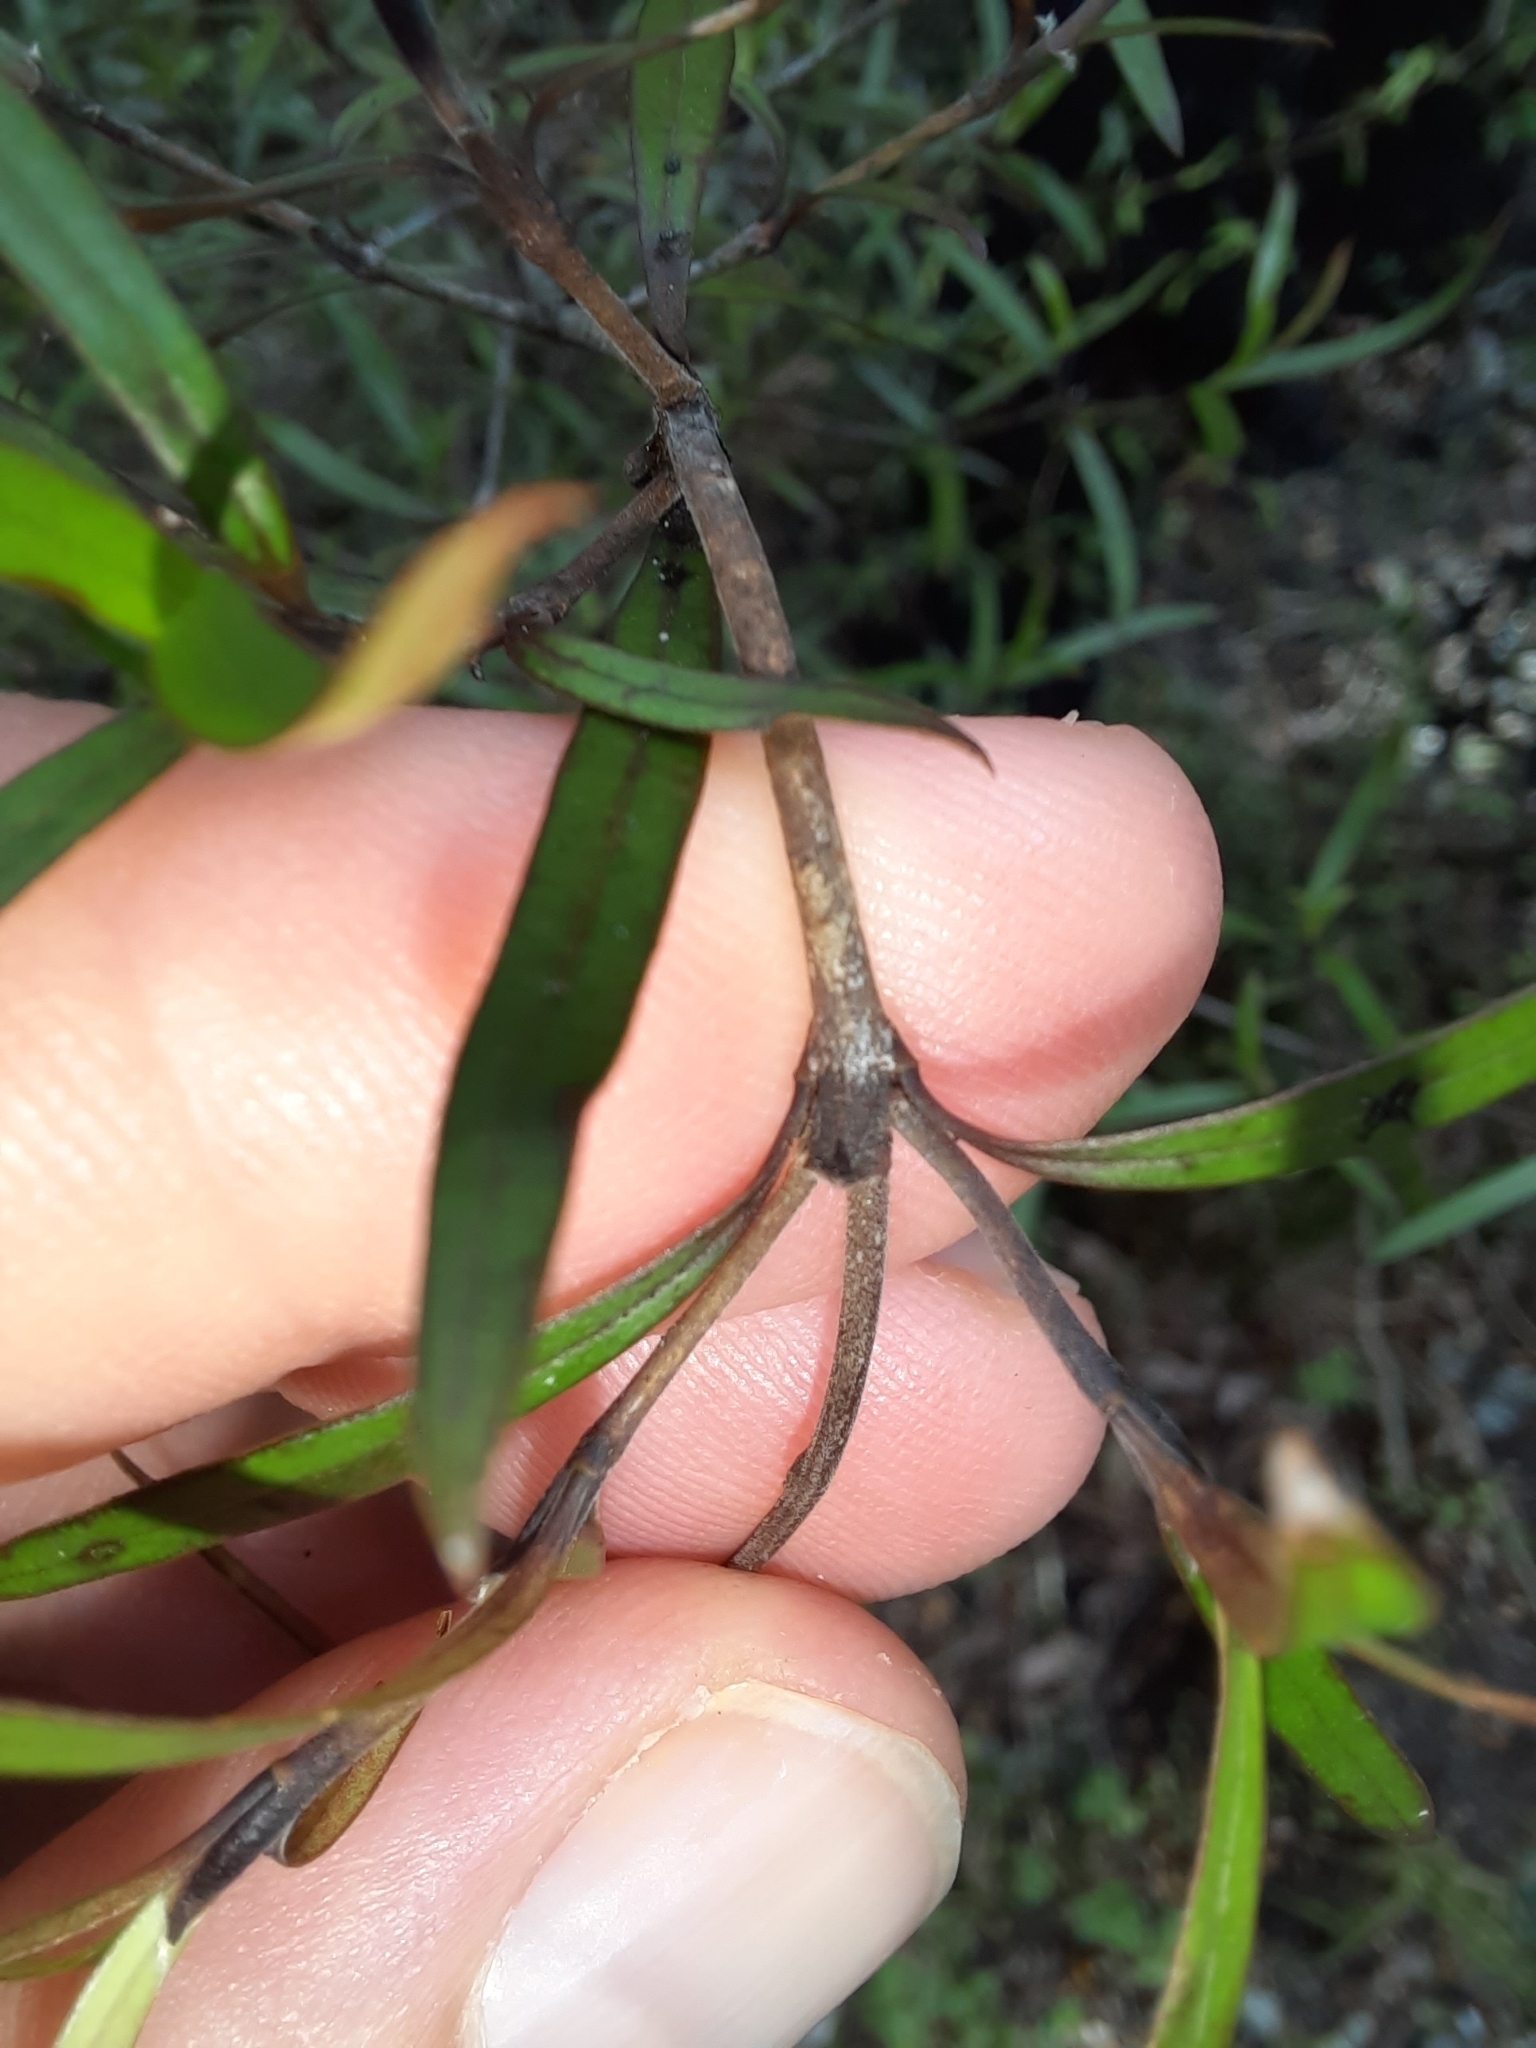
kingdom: Plantae
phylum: Tracheophyta
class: Magnoliopsida
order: Gentianales
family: Rubiaceae
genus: Coprosma
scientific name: Coprosma linariifolia
